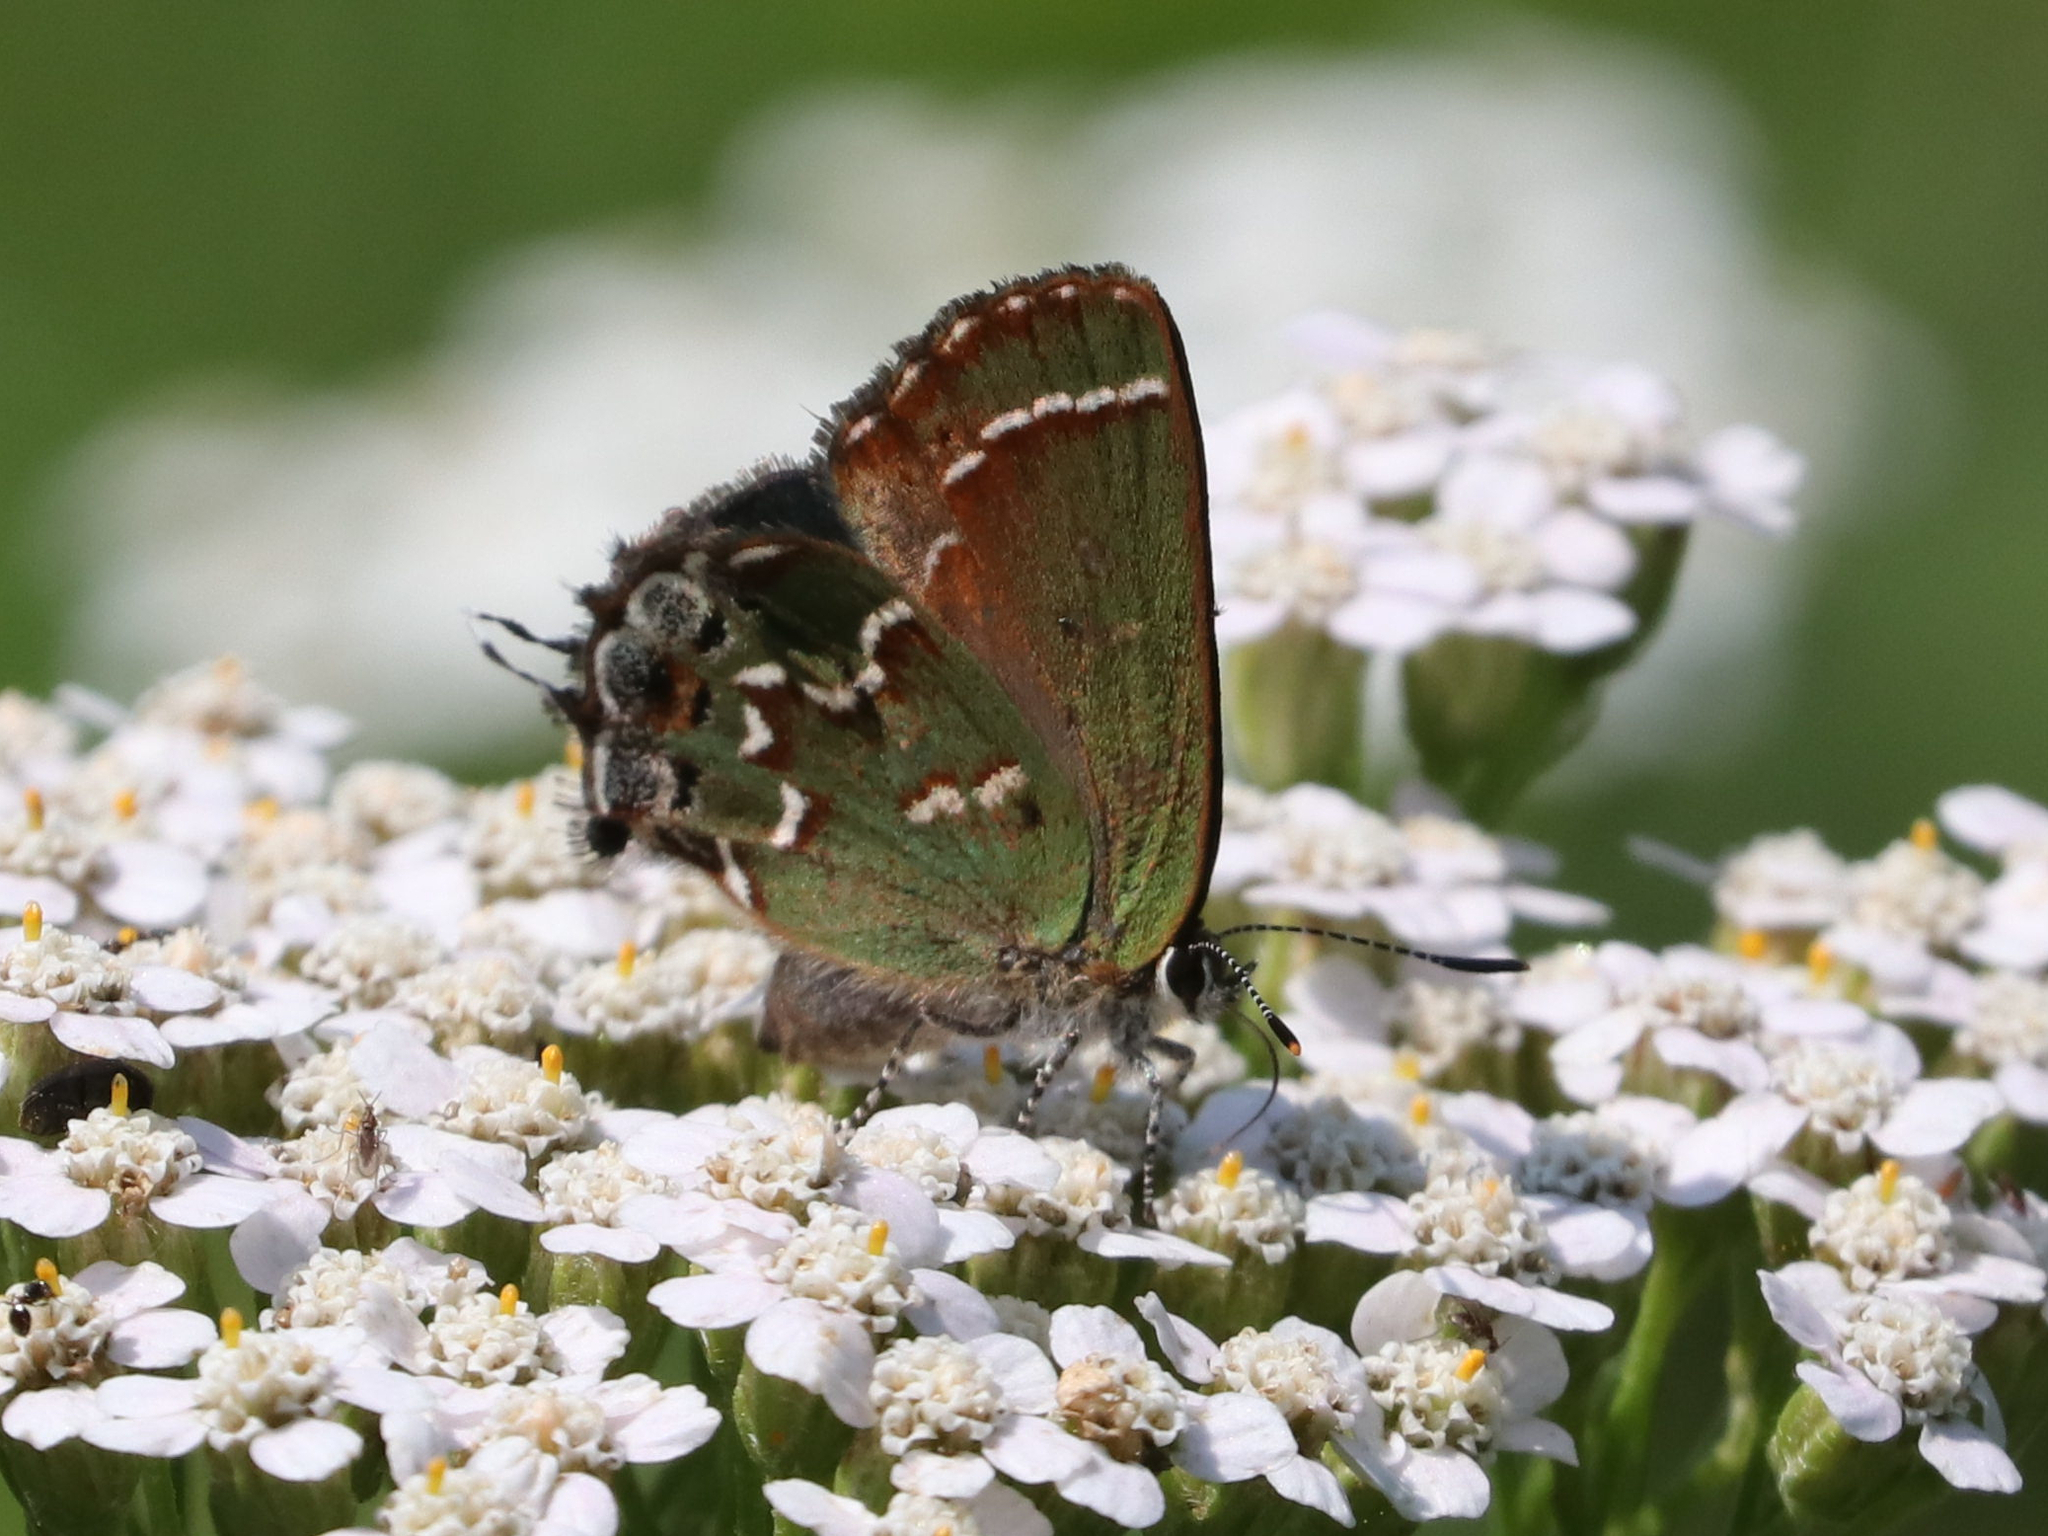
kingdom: Animalia
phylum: Arthropoda
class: Insecta
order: Lepidoptera
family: Lycaenidae
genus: Mitoura
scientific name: Mitoura gryneus
